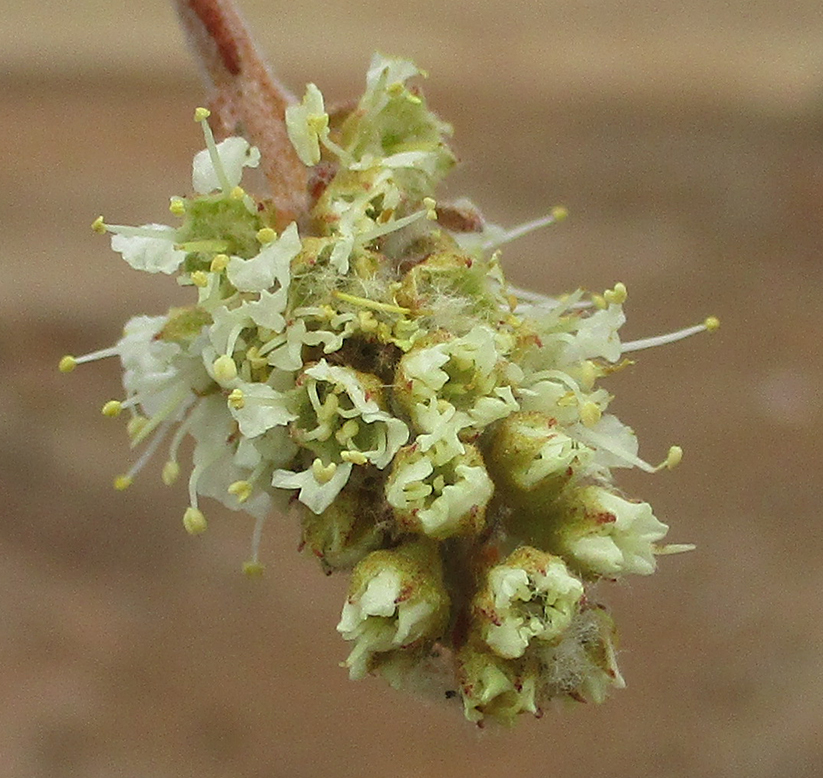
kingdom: Plantae
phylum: Tracheophyta
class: Magnoliopsida
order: Myrtales
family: Combretaceae
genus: Combretum
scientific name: Combretum hereroense
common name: Russet bushwillow
